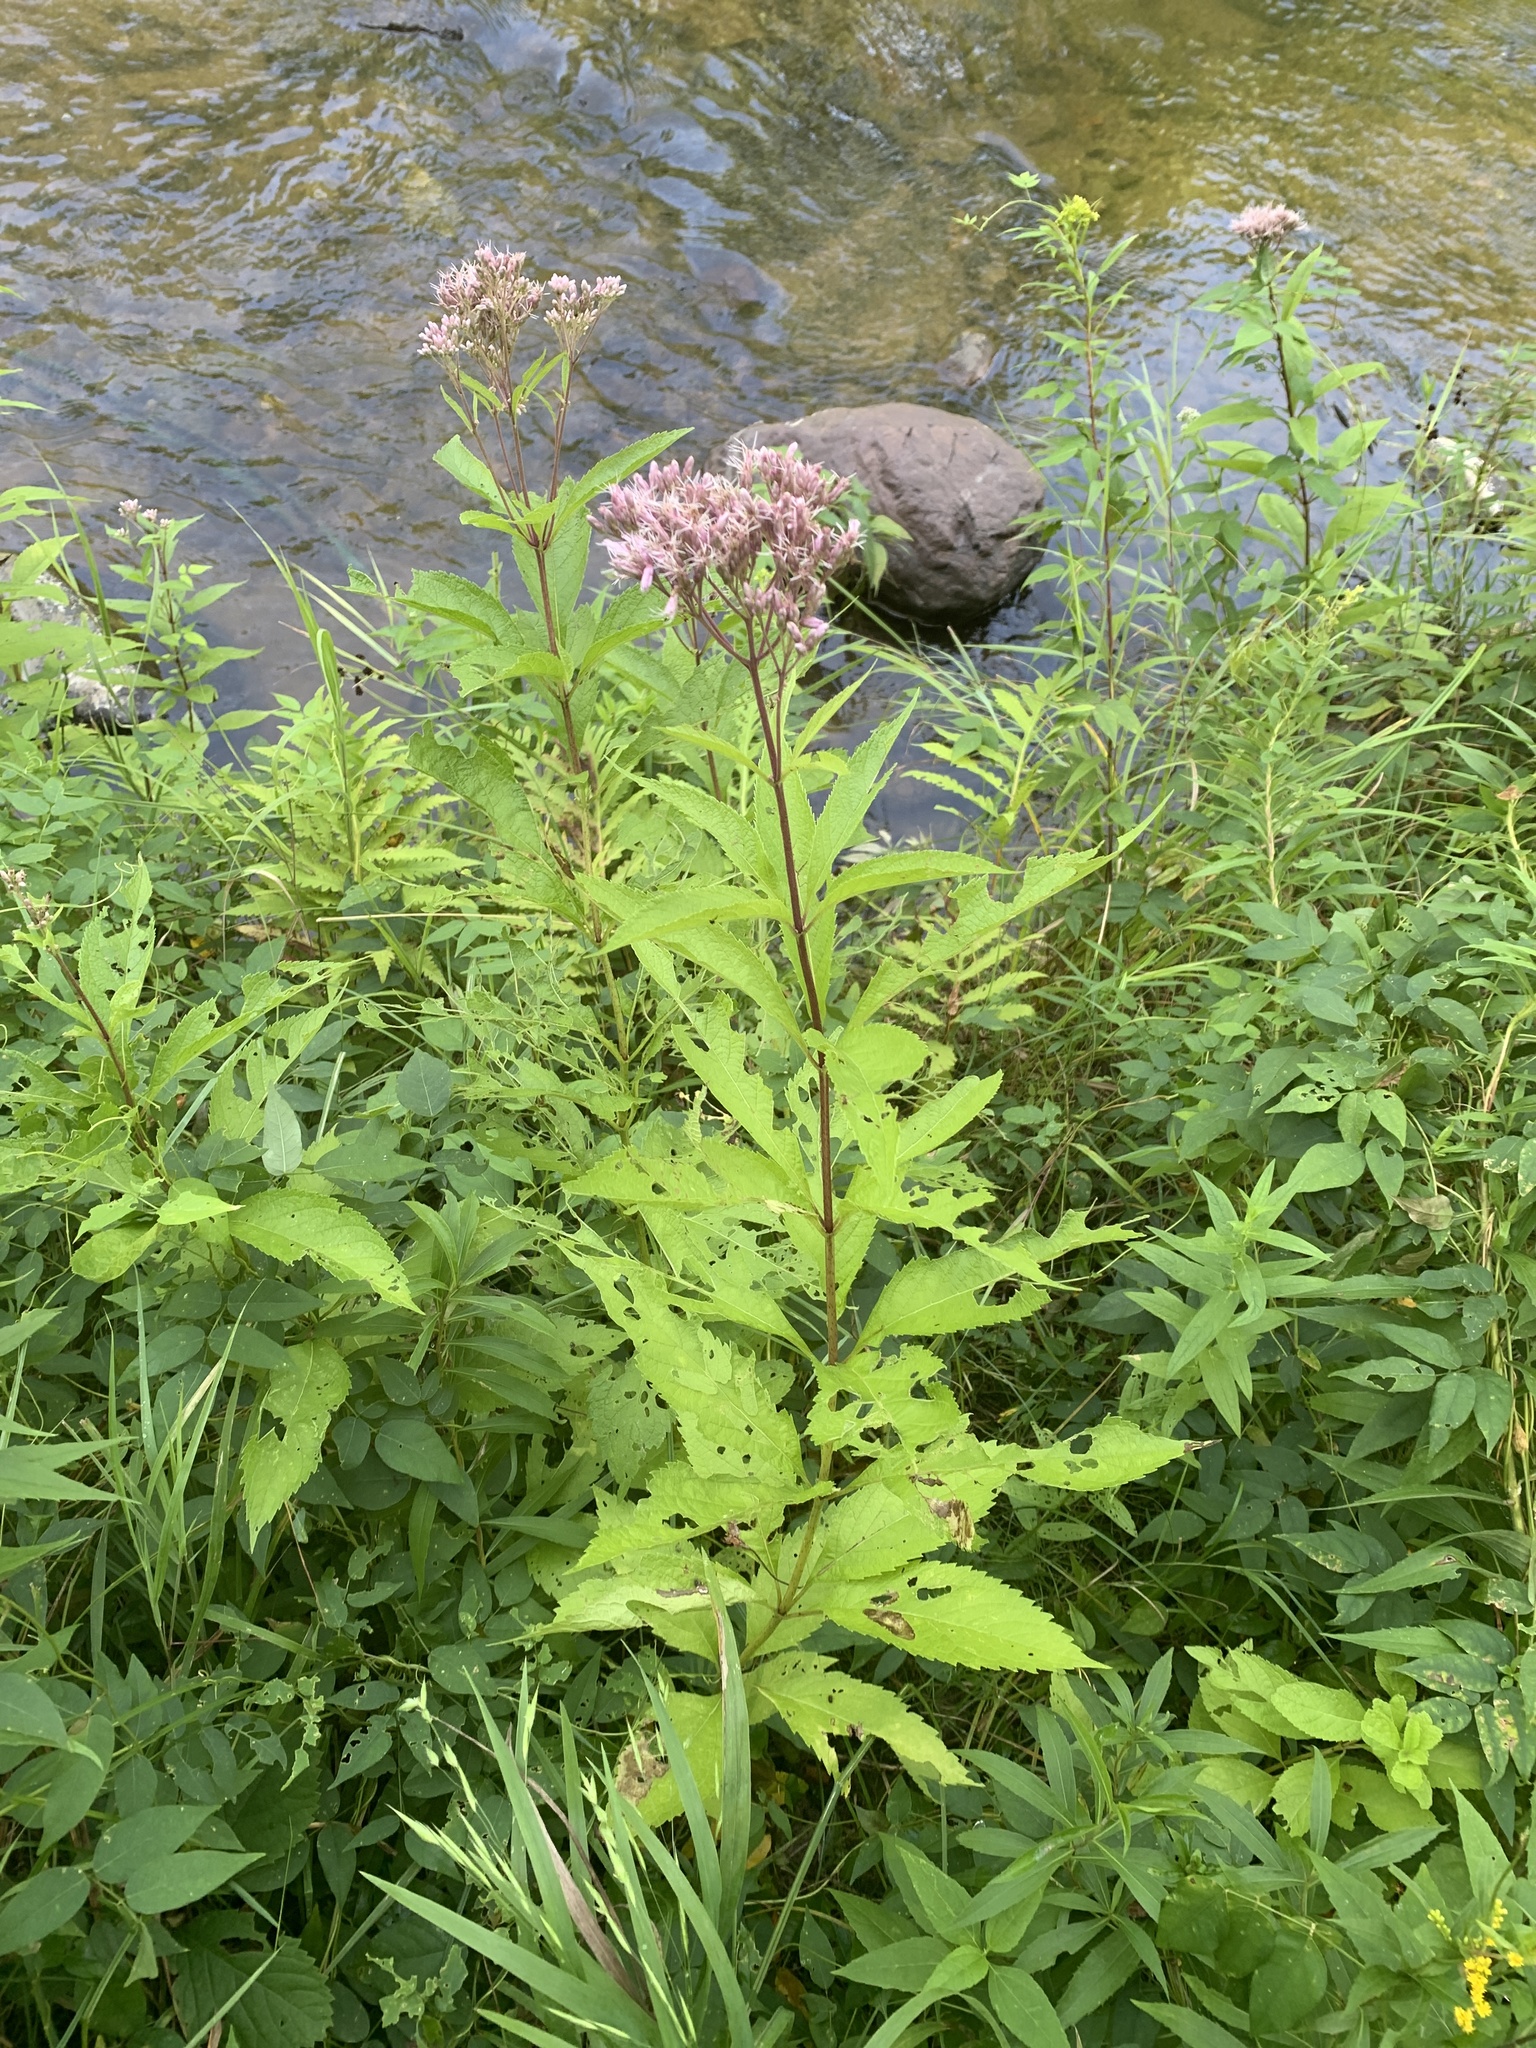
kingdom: Plantae
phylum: Tracheophyta
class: Magnoliopsida
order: Asterales
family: Asteraceae
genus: Eutrochium
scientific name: Eutrochium maculatum
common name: Spotted joe pye weed
